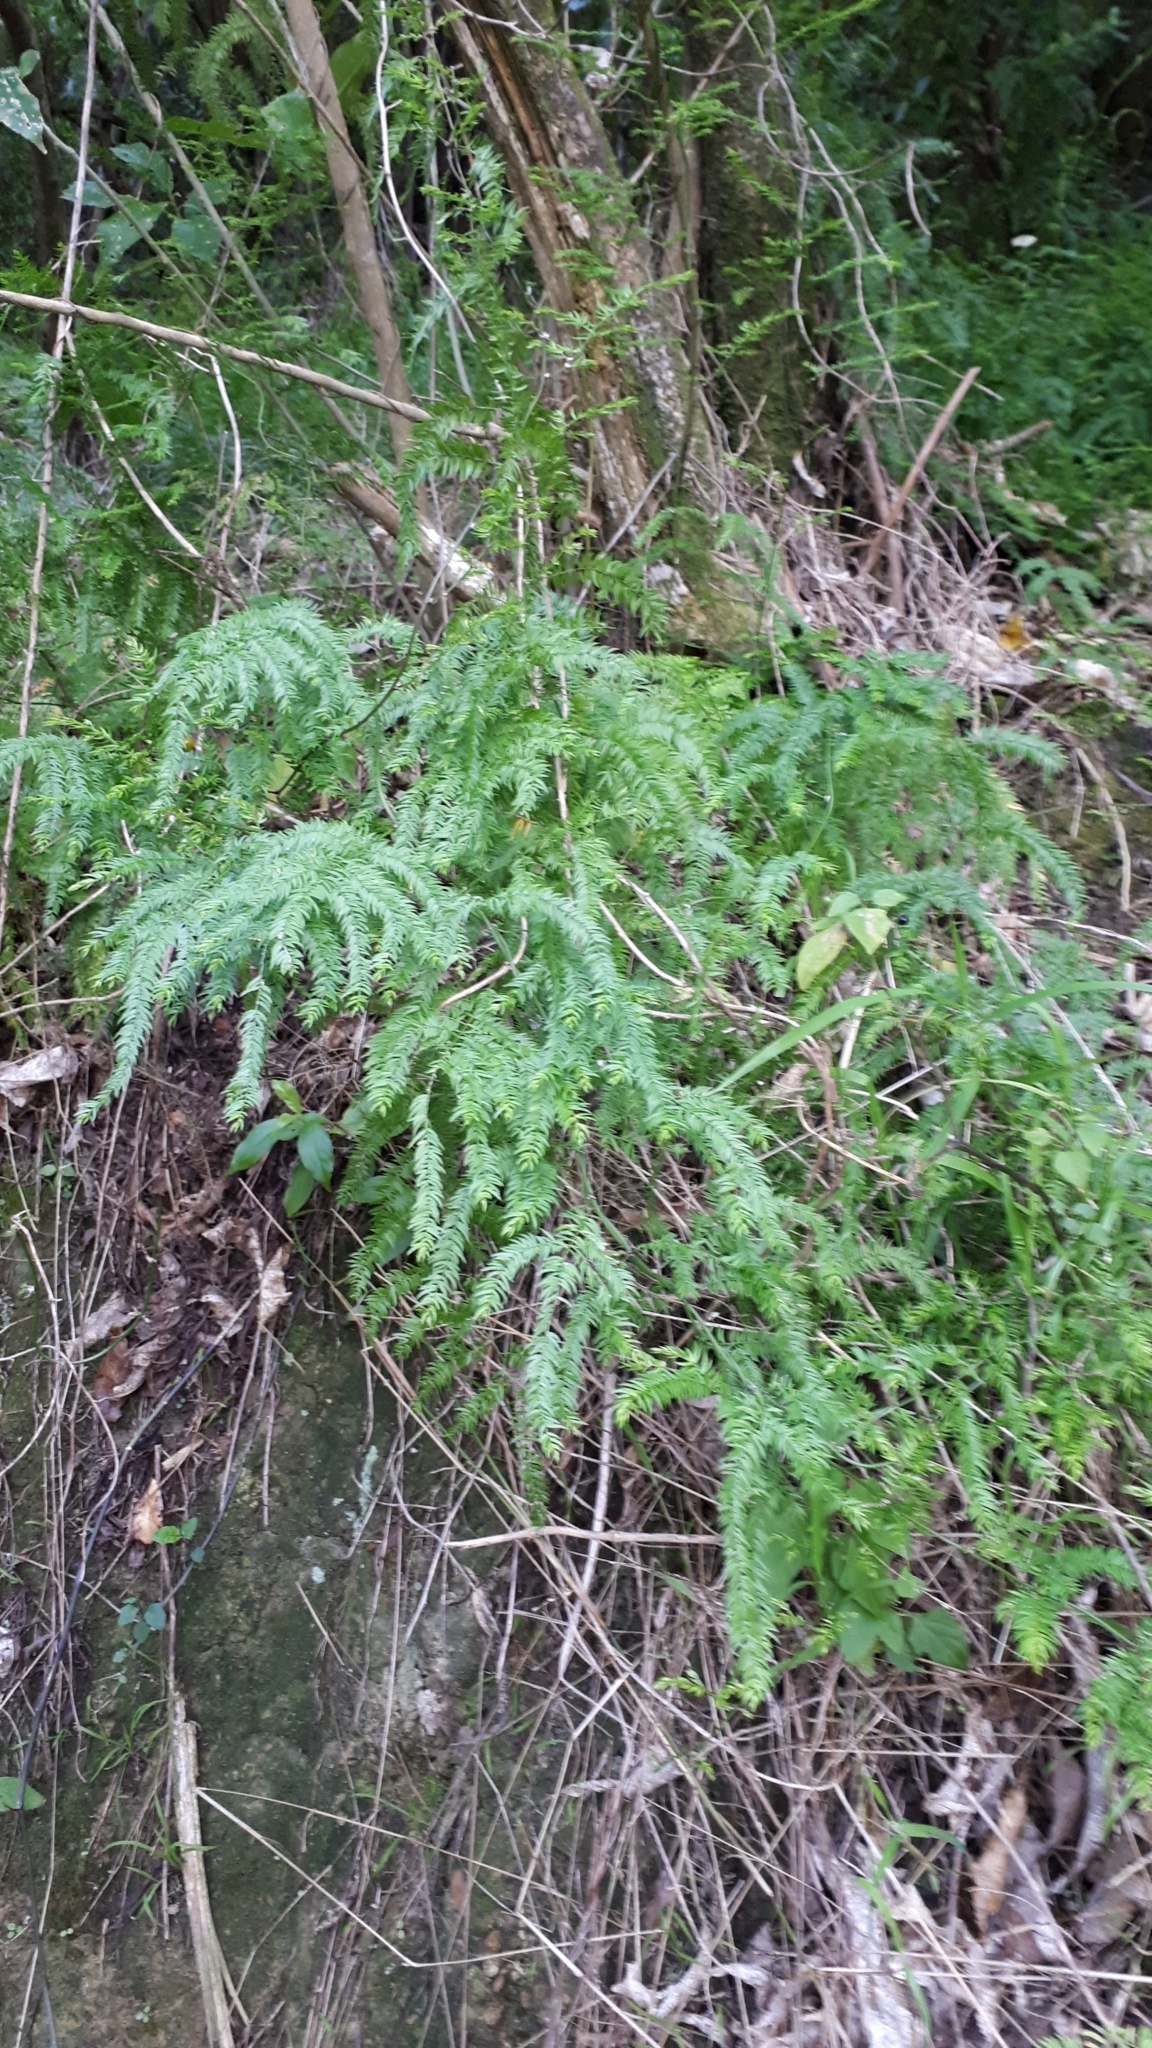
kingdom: Plantae
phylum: Tracheophyta
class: Liliopsida
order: Asparagales
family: Asparagaceae
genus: Asparagus
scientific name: Asparagus scandens
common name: Asparagus-fern
